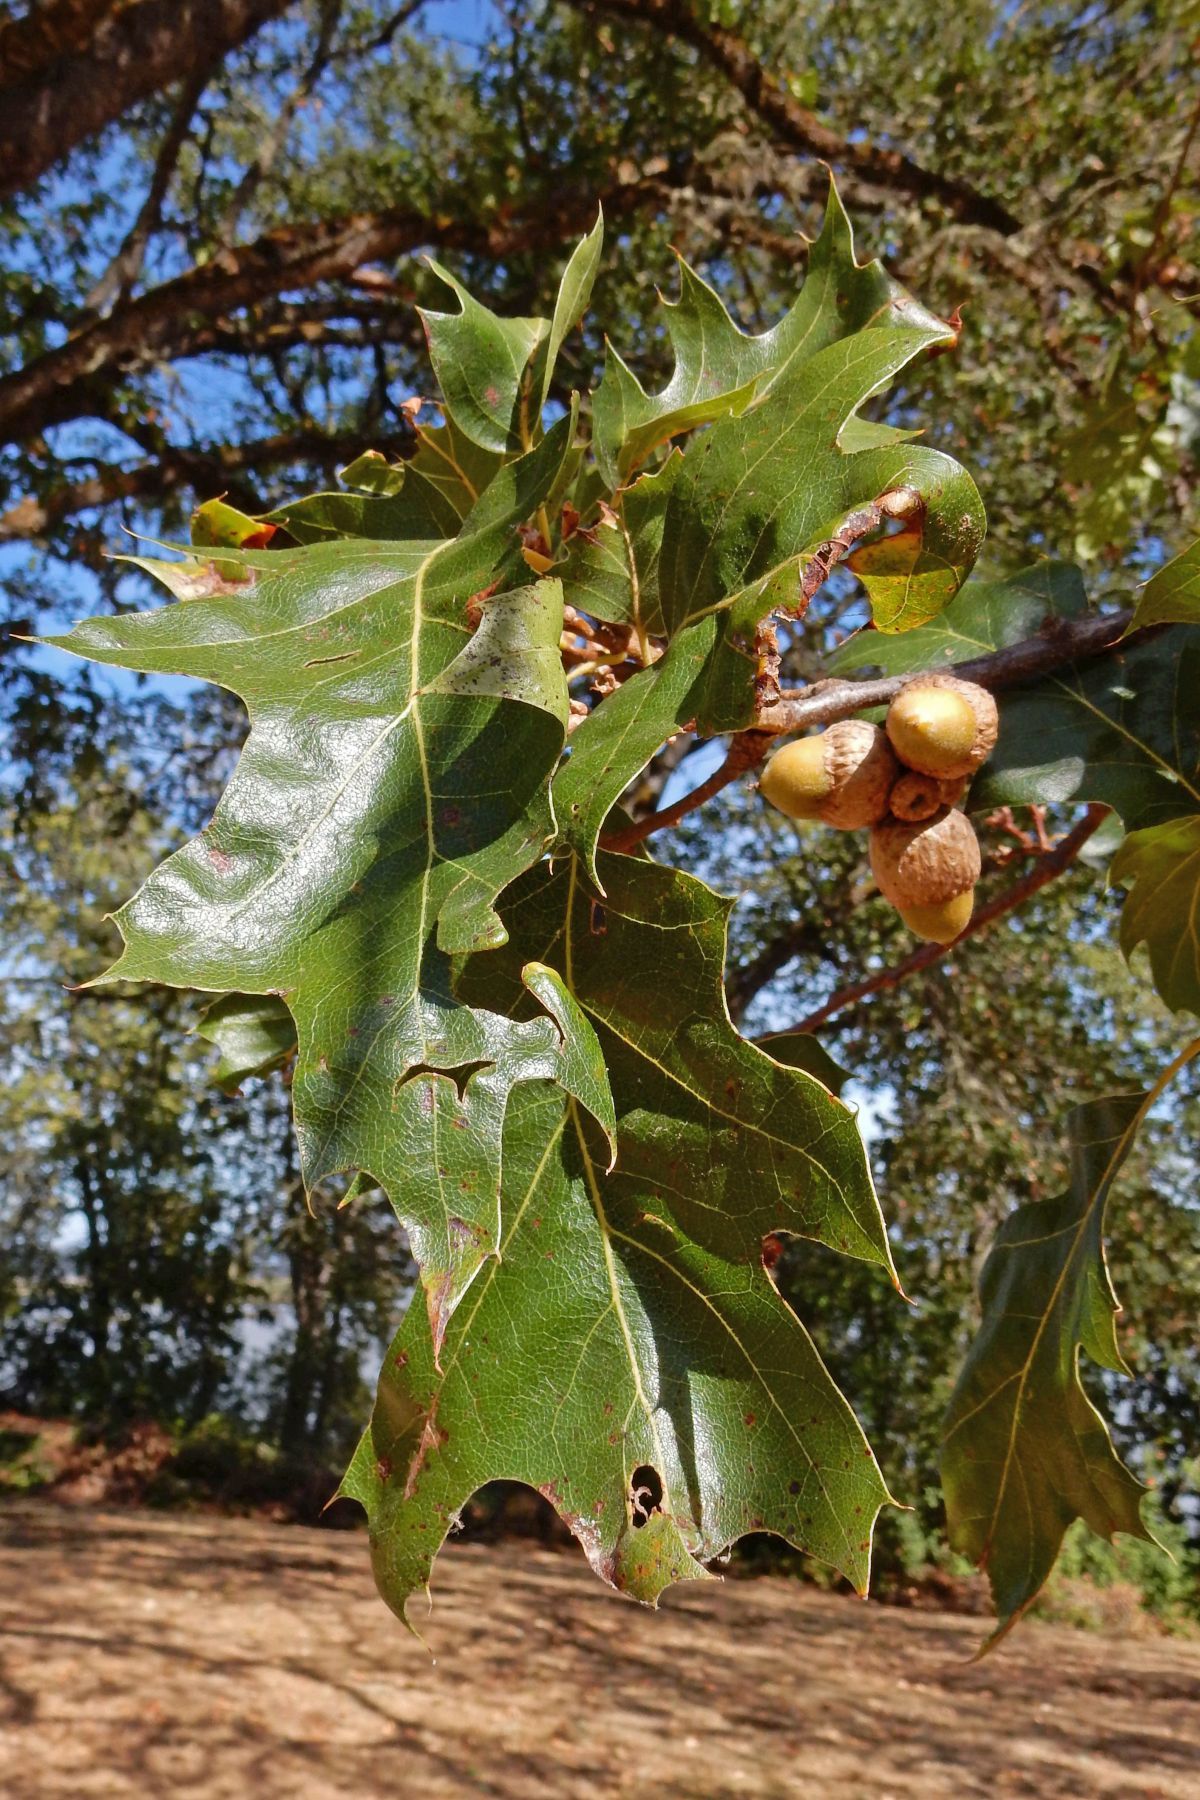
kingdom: Plantae
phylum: Tracheophyta
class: Magnoliopsida
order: Fagales
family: Fagaceae
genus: Quercus
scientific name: Quercus kelloggii
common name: California black oak
